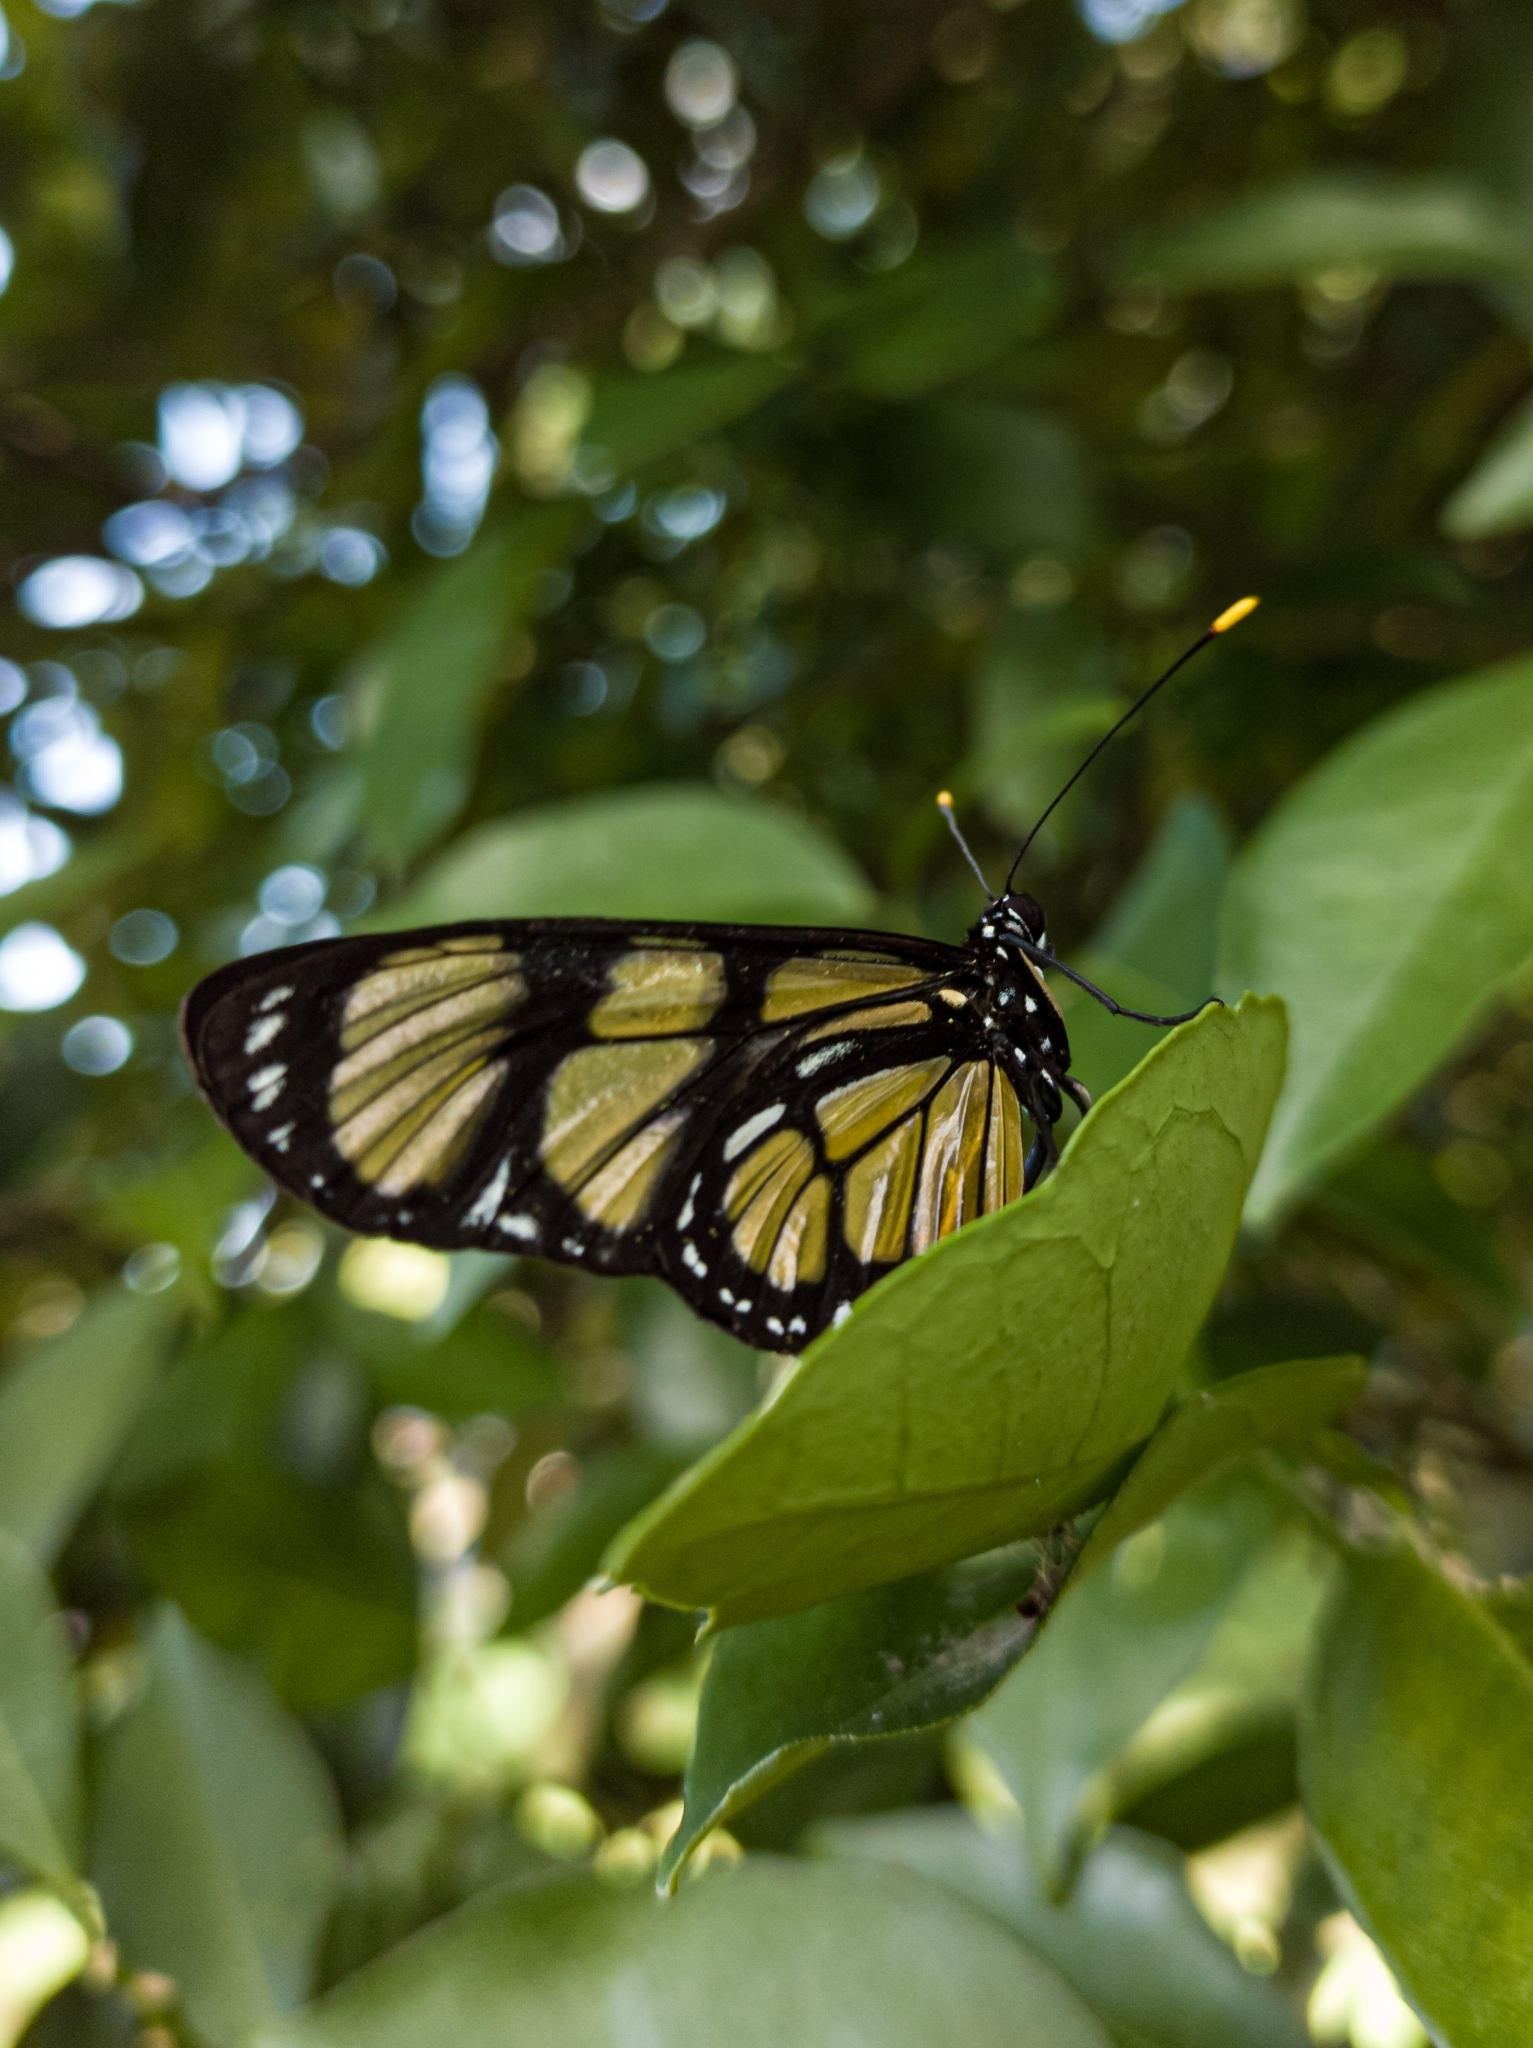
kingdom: Animalia
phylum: Arthropoda
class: Insecta
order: Lepidoptera
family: Nymphalidae
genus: Methona
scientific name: Methona themisto
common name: Themisto amberwing
